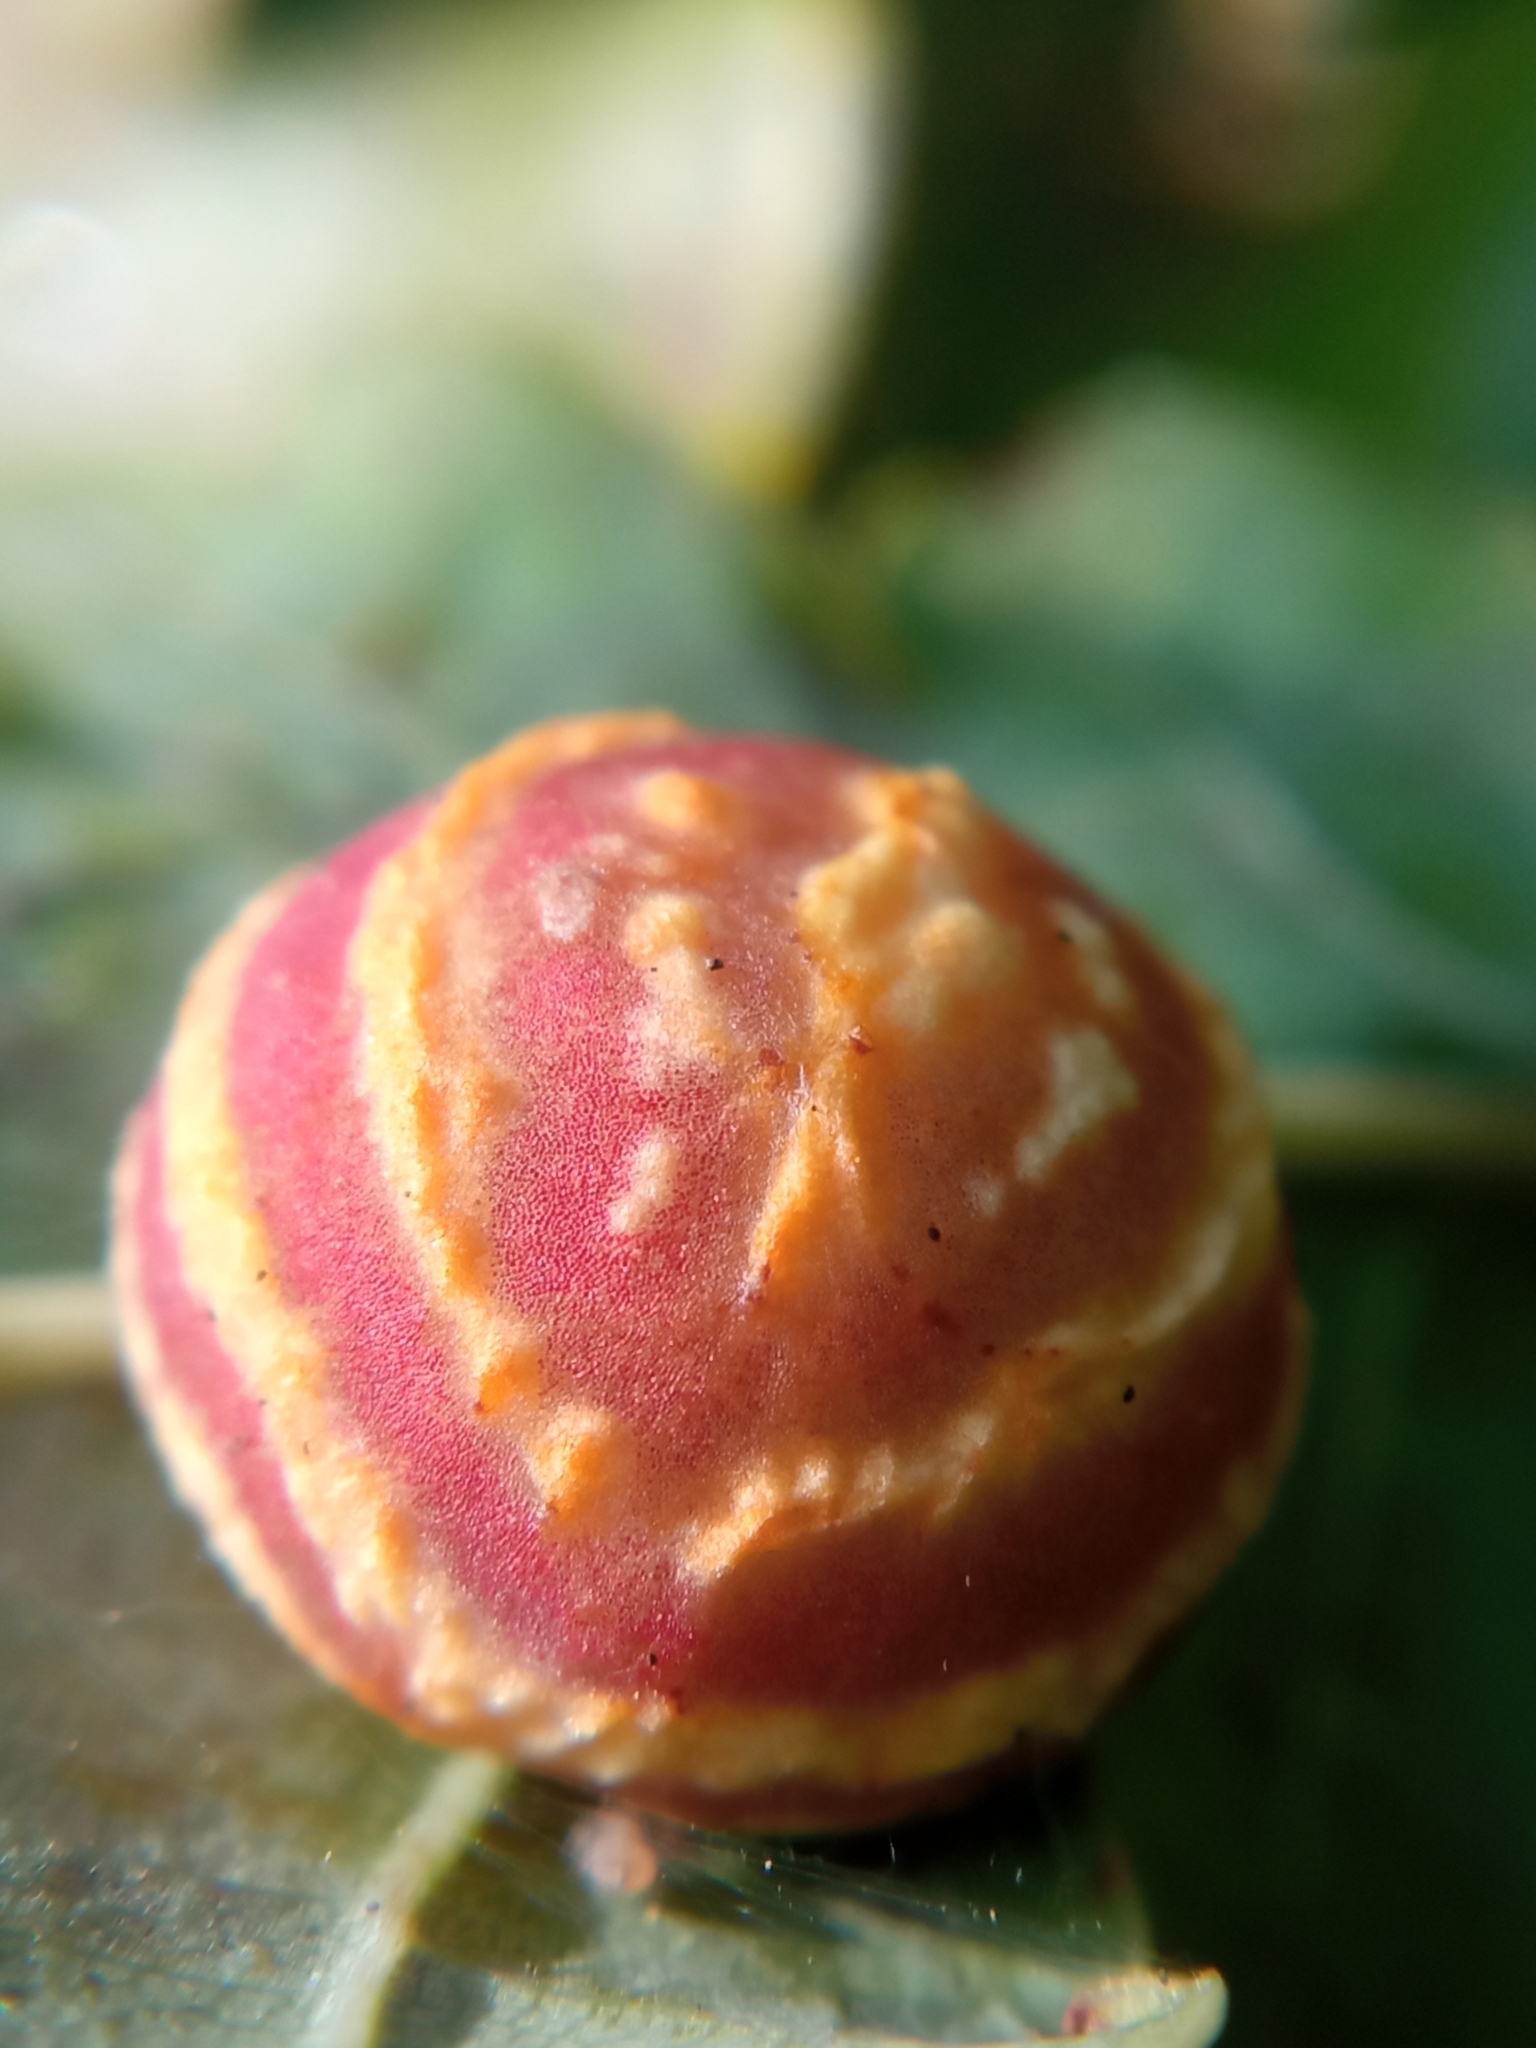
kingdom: Animalia
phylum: Arthropoda
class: Insecta
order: Hymenoptera
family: Cynipidae
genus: Cynips
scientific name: Cynips longiventris
